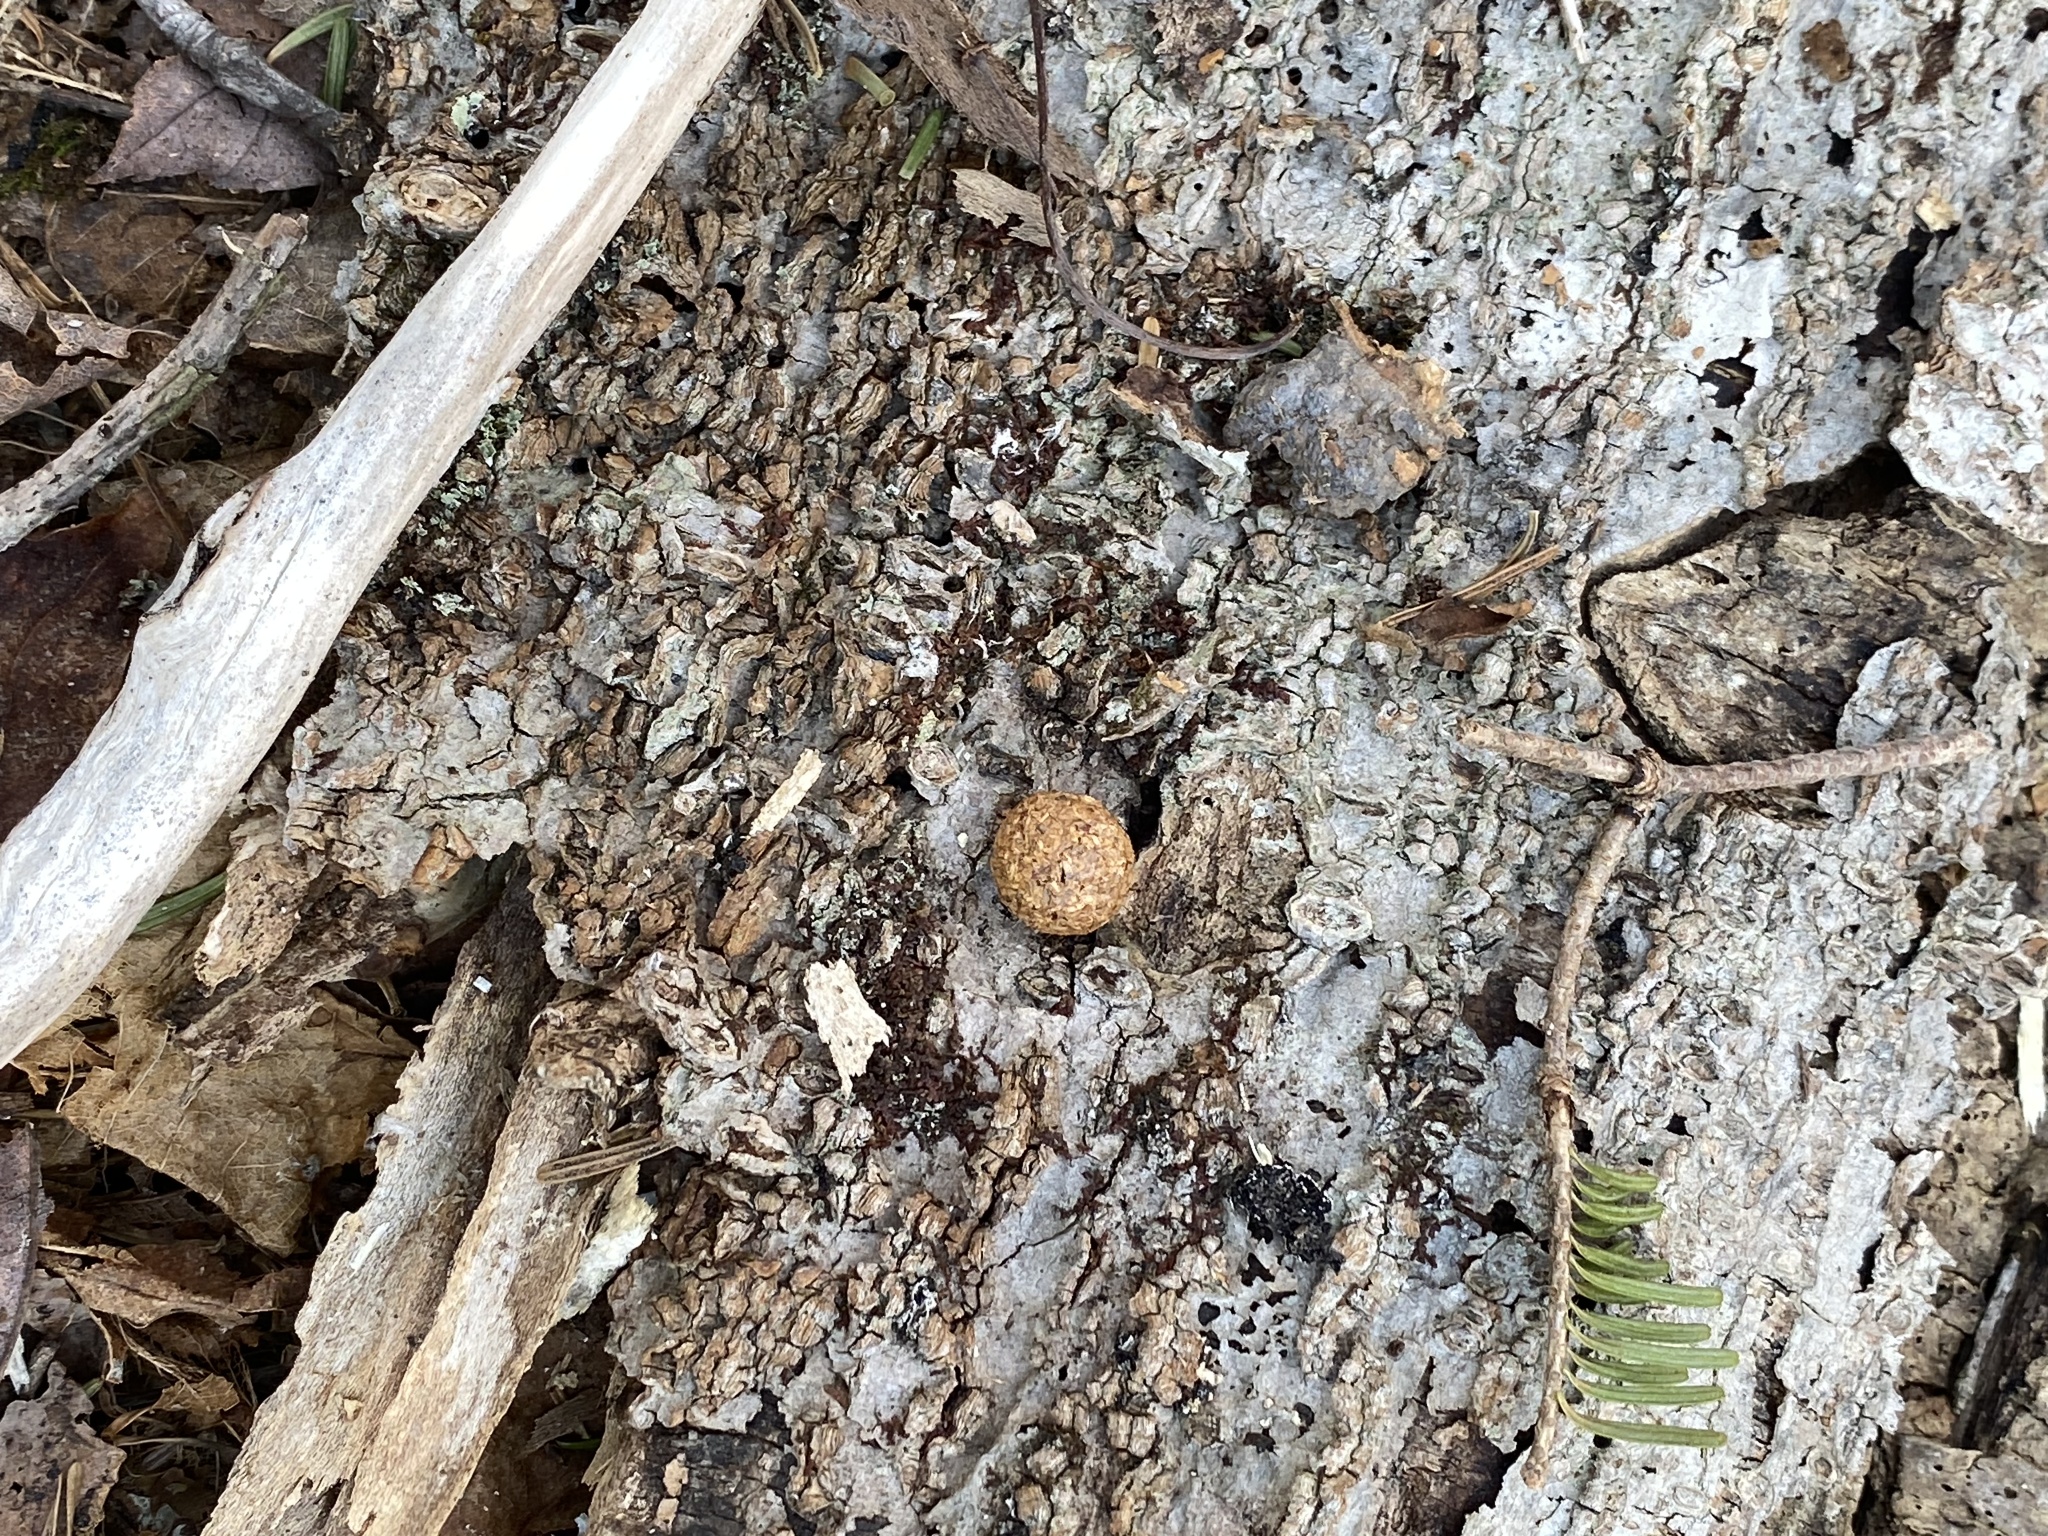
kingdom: Animalia
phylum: Chordata
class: Mammalia
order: Lagomorpha
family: Leporidae
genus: Lepus
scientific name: Lepus americanus
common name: Snowshoe hare
